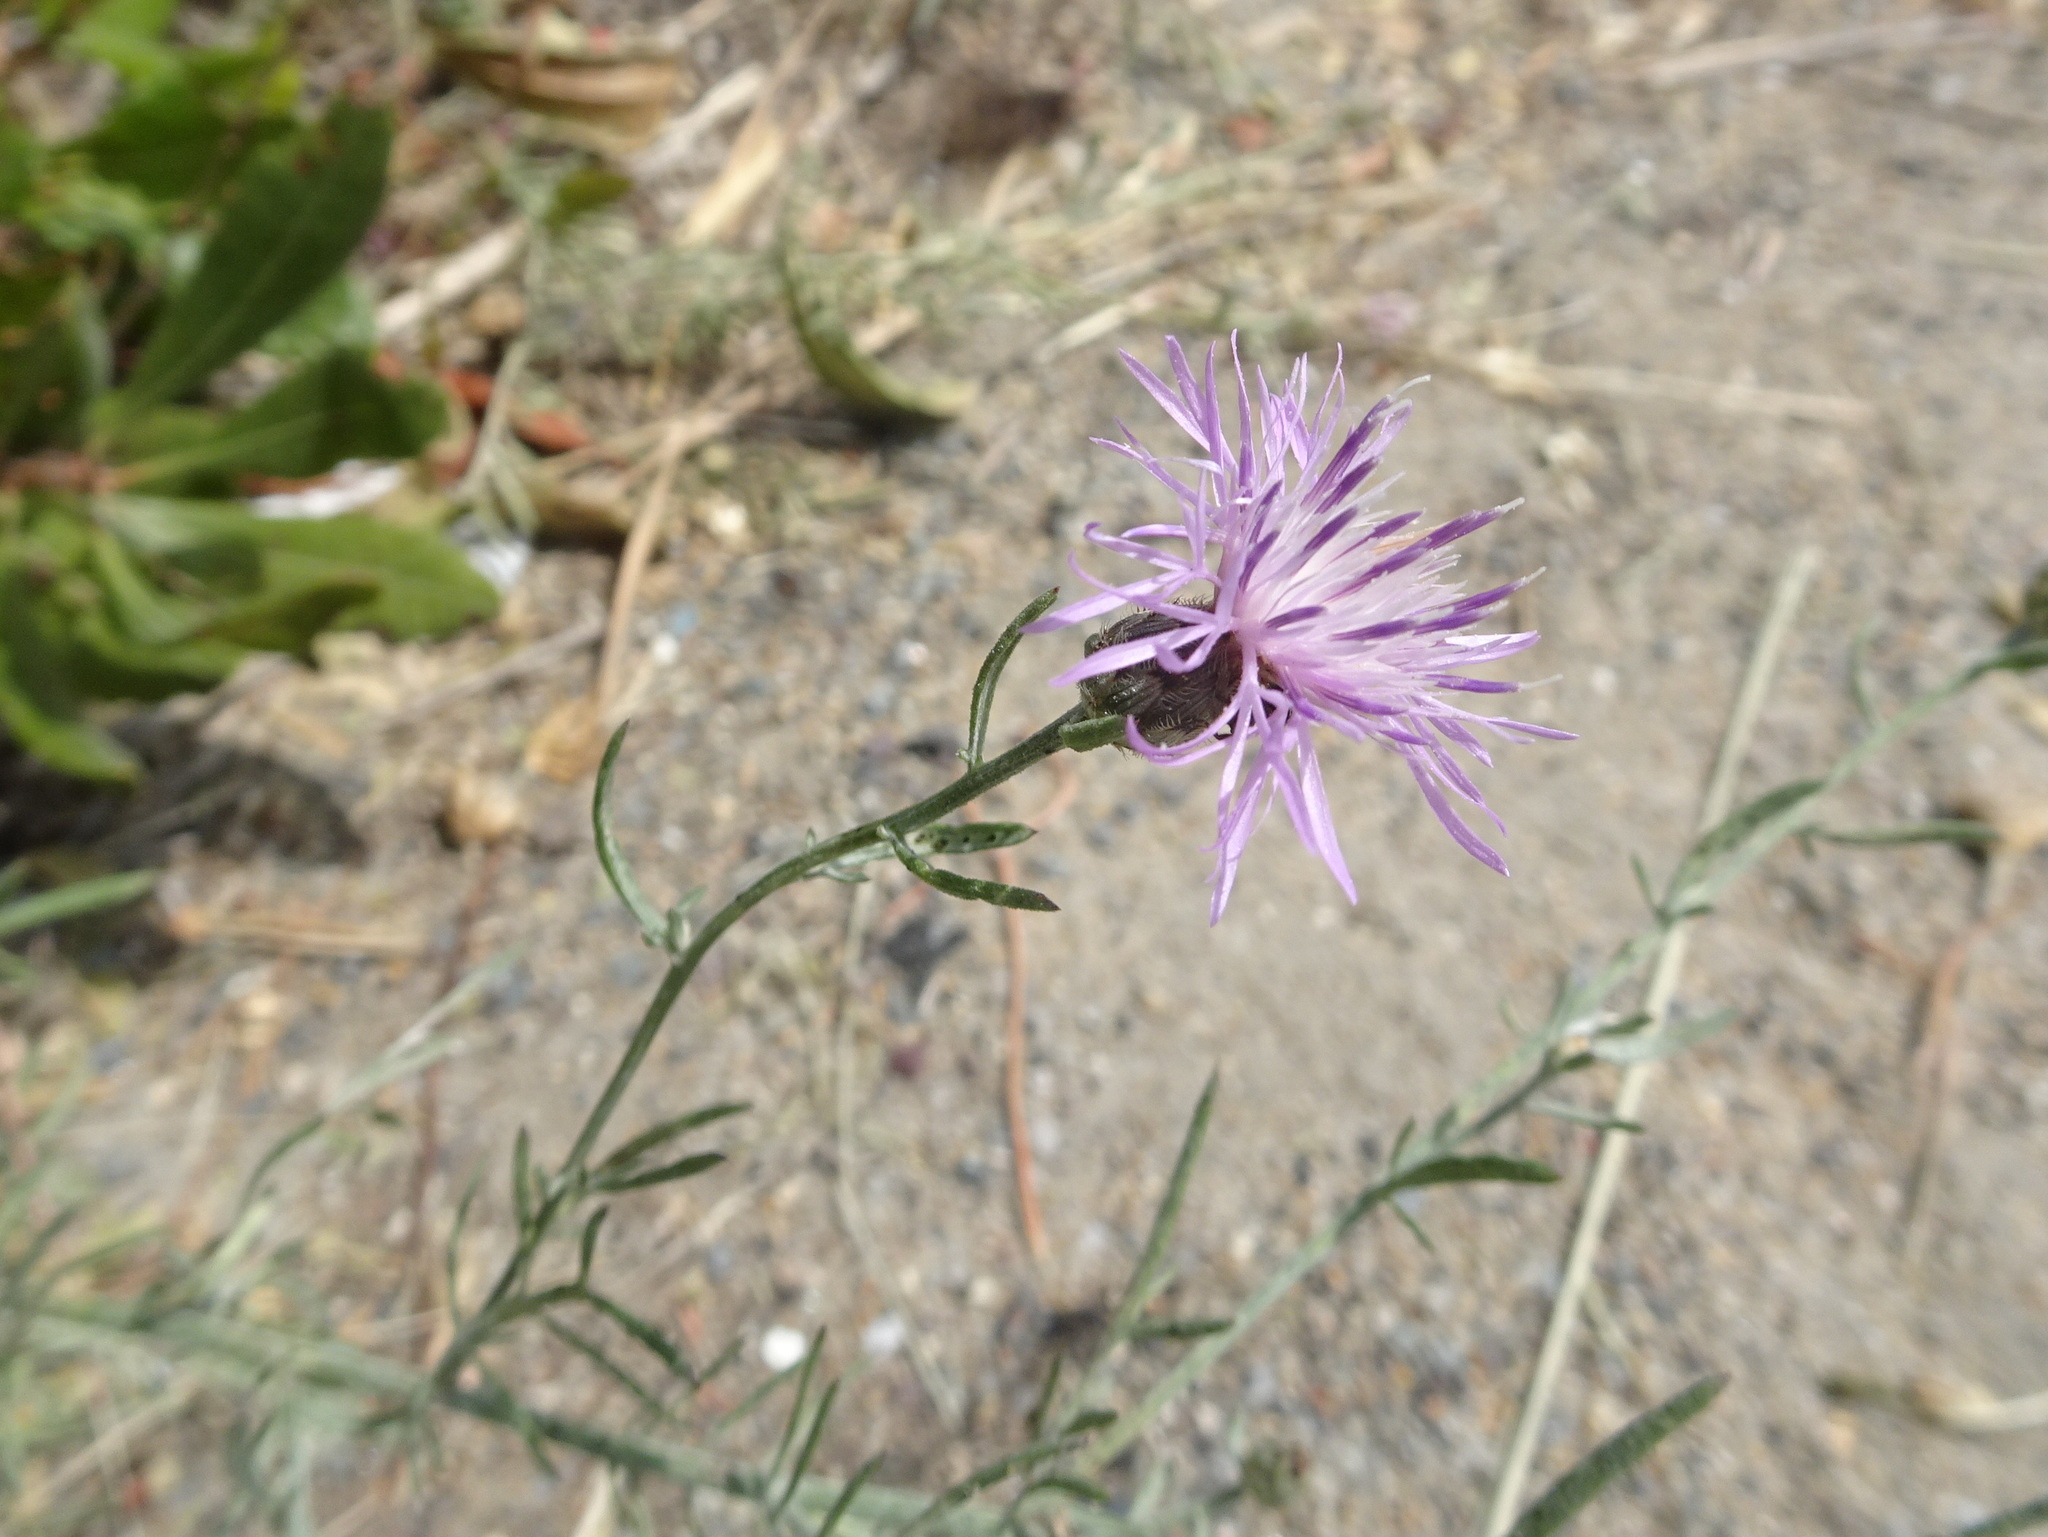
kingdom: Plantae
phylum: Tracheophyta
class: Magnoliopsida
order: Asterales
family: Asteraceae
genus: Centaurea
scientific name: Centaurea stoebe
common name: Spotted knapweed
